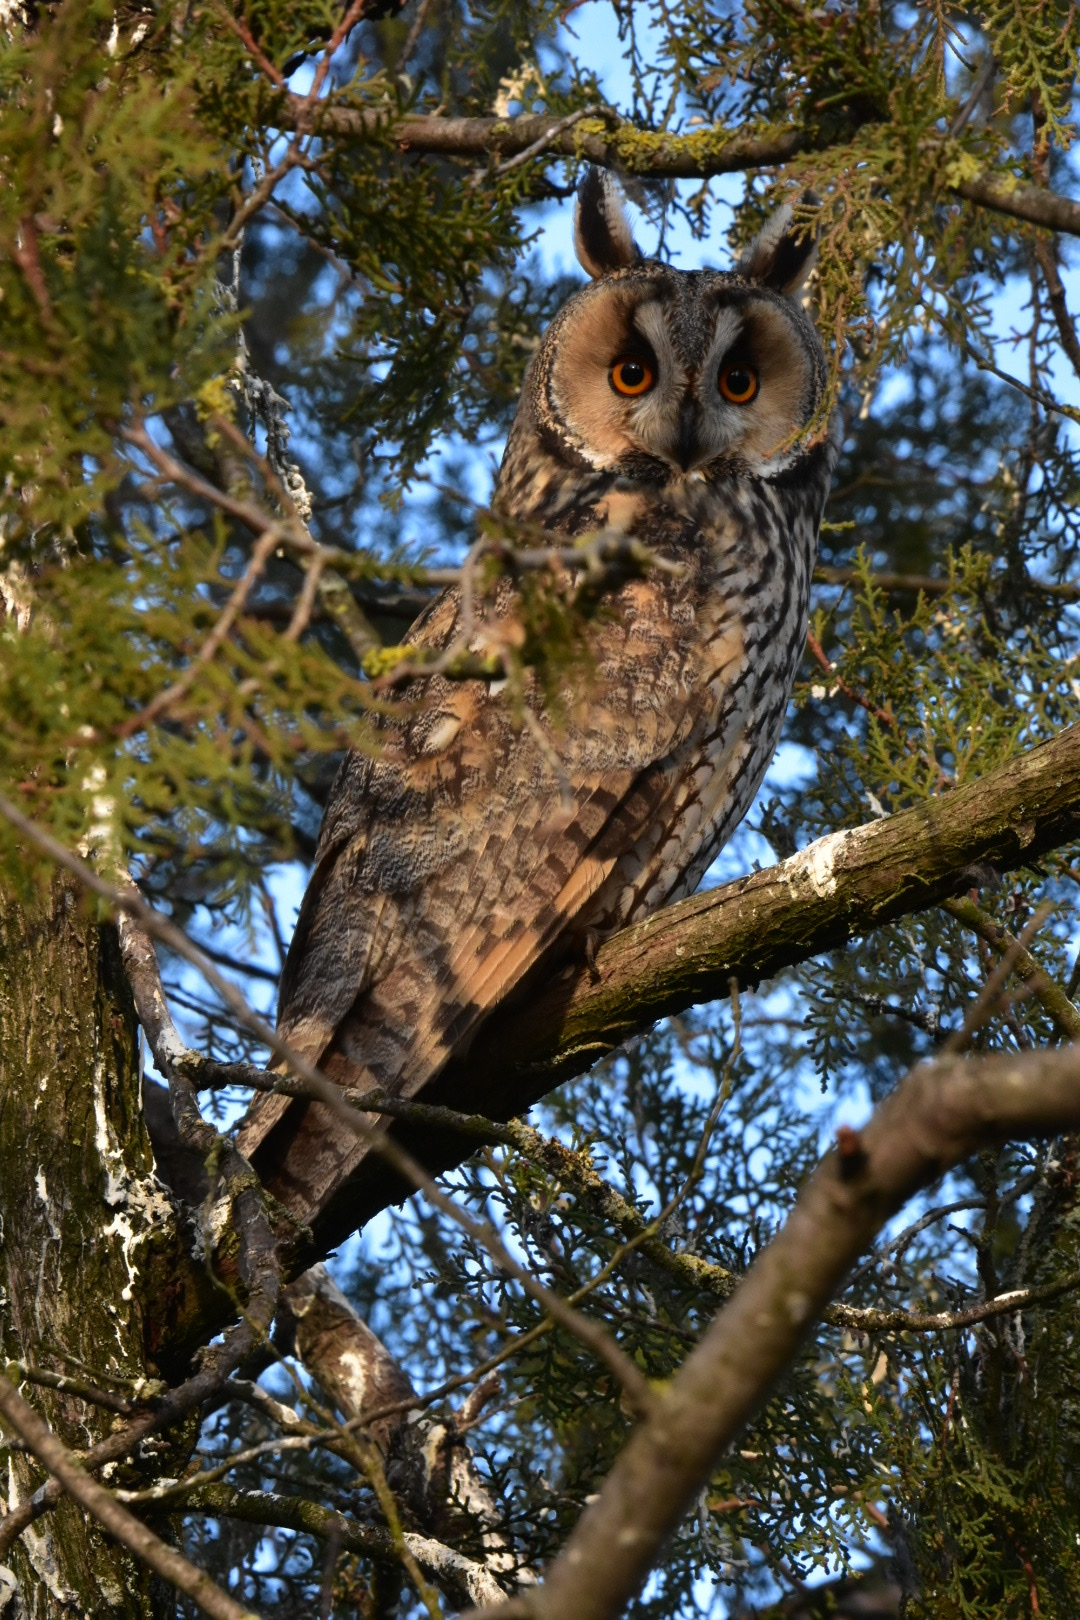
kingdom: Animalia
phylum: Chordata
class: Aves
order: Strigiformes
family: Strigidae
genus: Asio
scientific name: Asio otus
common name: Long-eared owl
